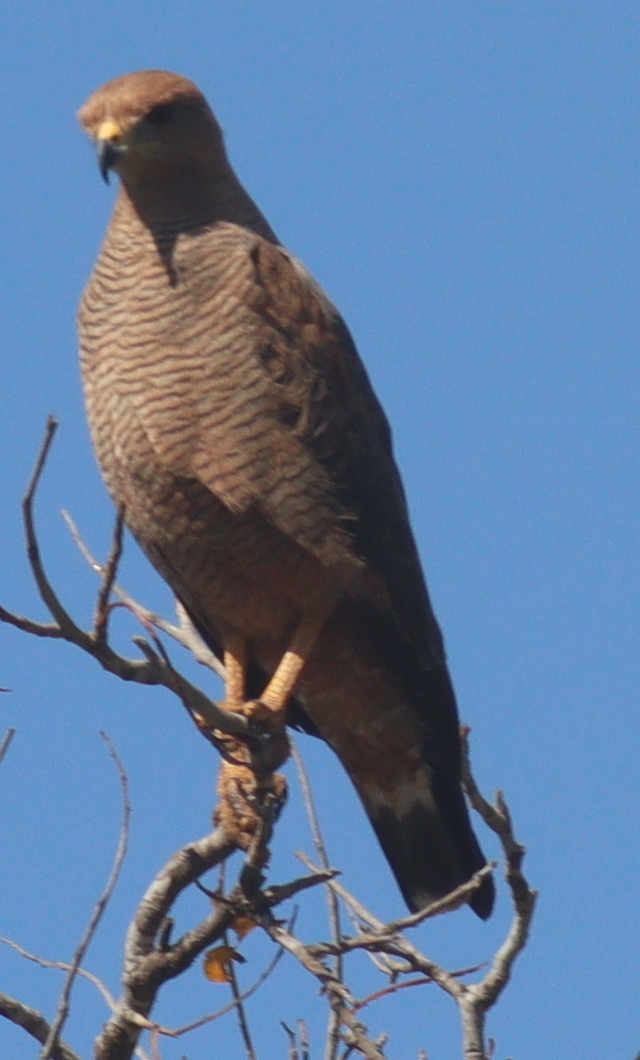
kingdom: Animalia
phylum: Chordata
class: Aves
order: Accipitriformes
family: Accipitridae
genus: Buteogallus
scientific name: Buteogallus meridionalis
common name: Savanna hawk
